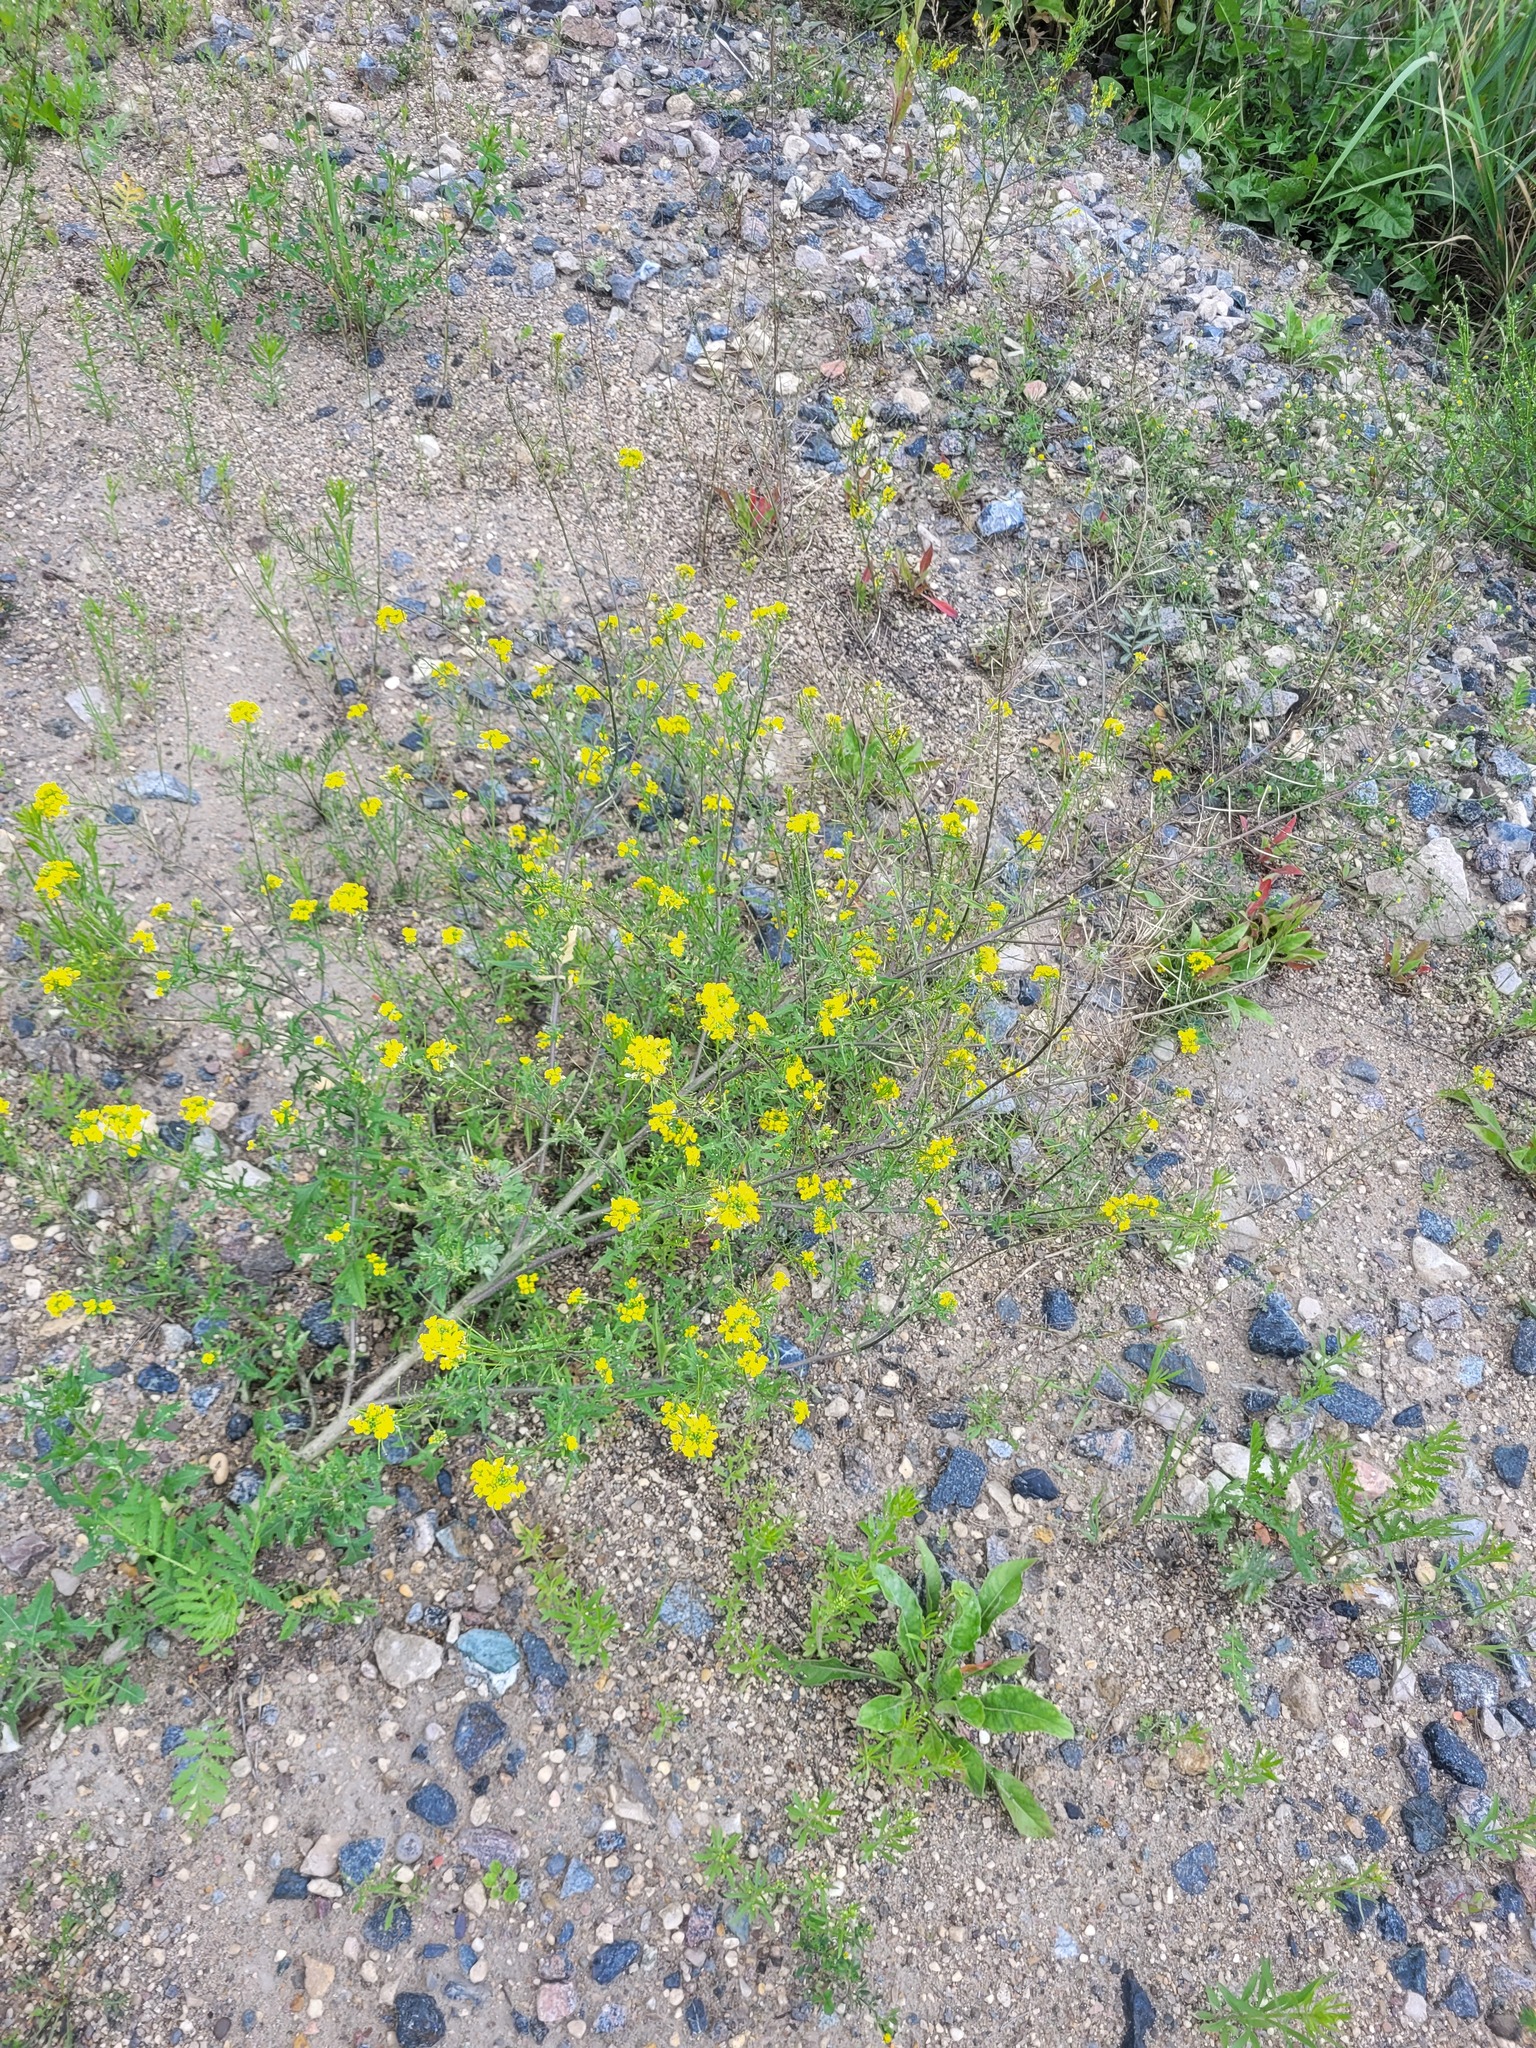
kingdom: Plantae
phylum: Tracheophyta
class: Magnoliopsida
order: Brassicales
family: Brassicaceae
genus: Sisymbrium
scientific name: Sisymbrium loeselii
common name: False london-rocket
